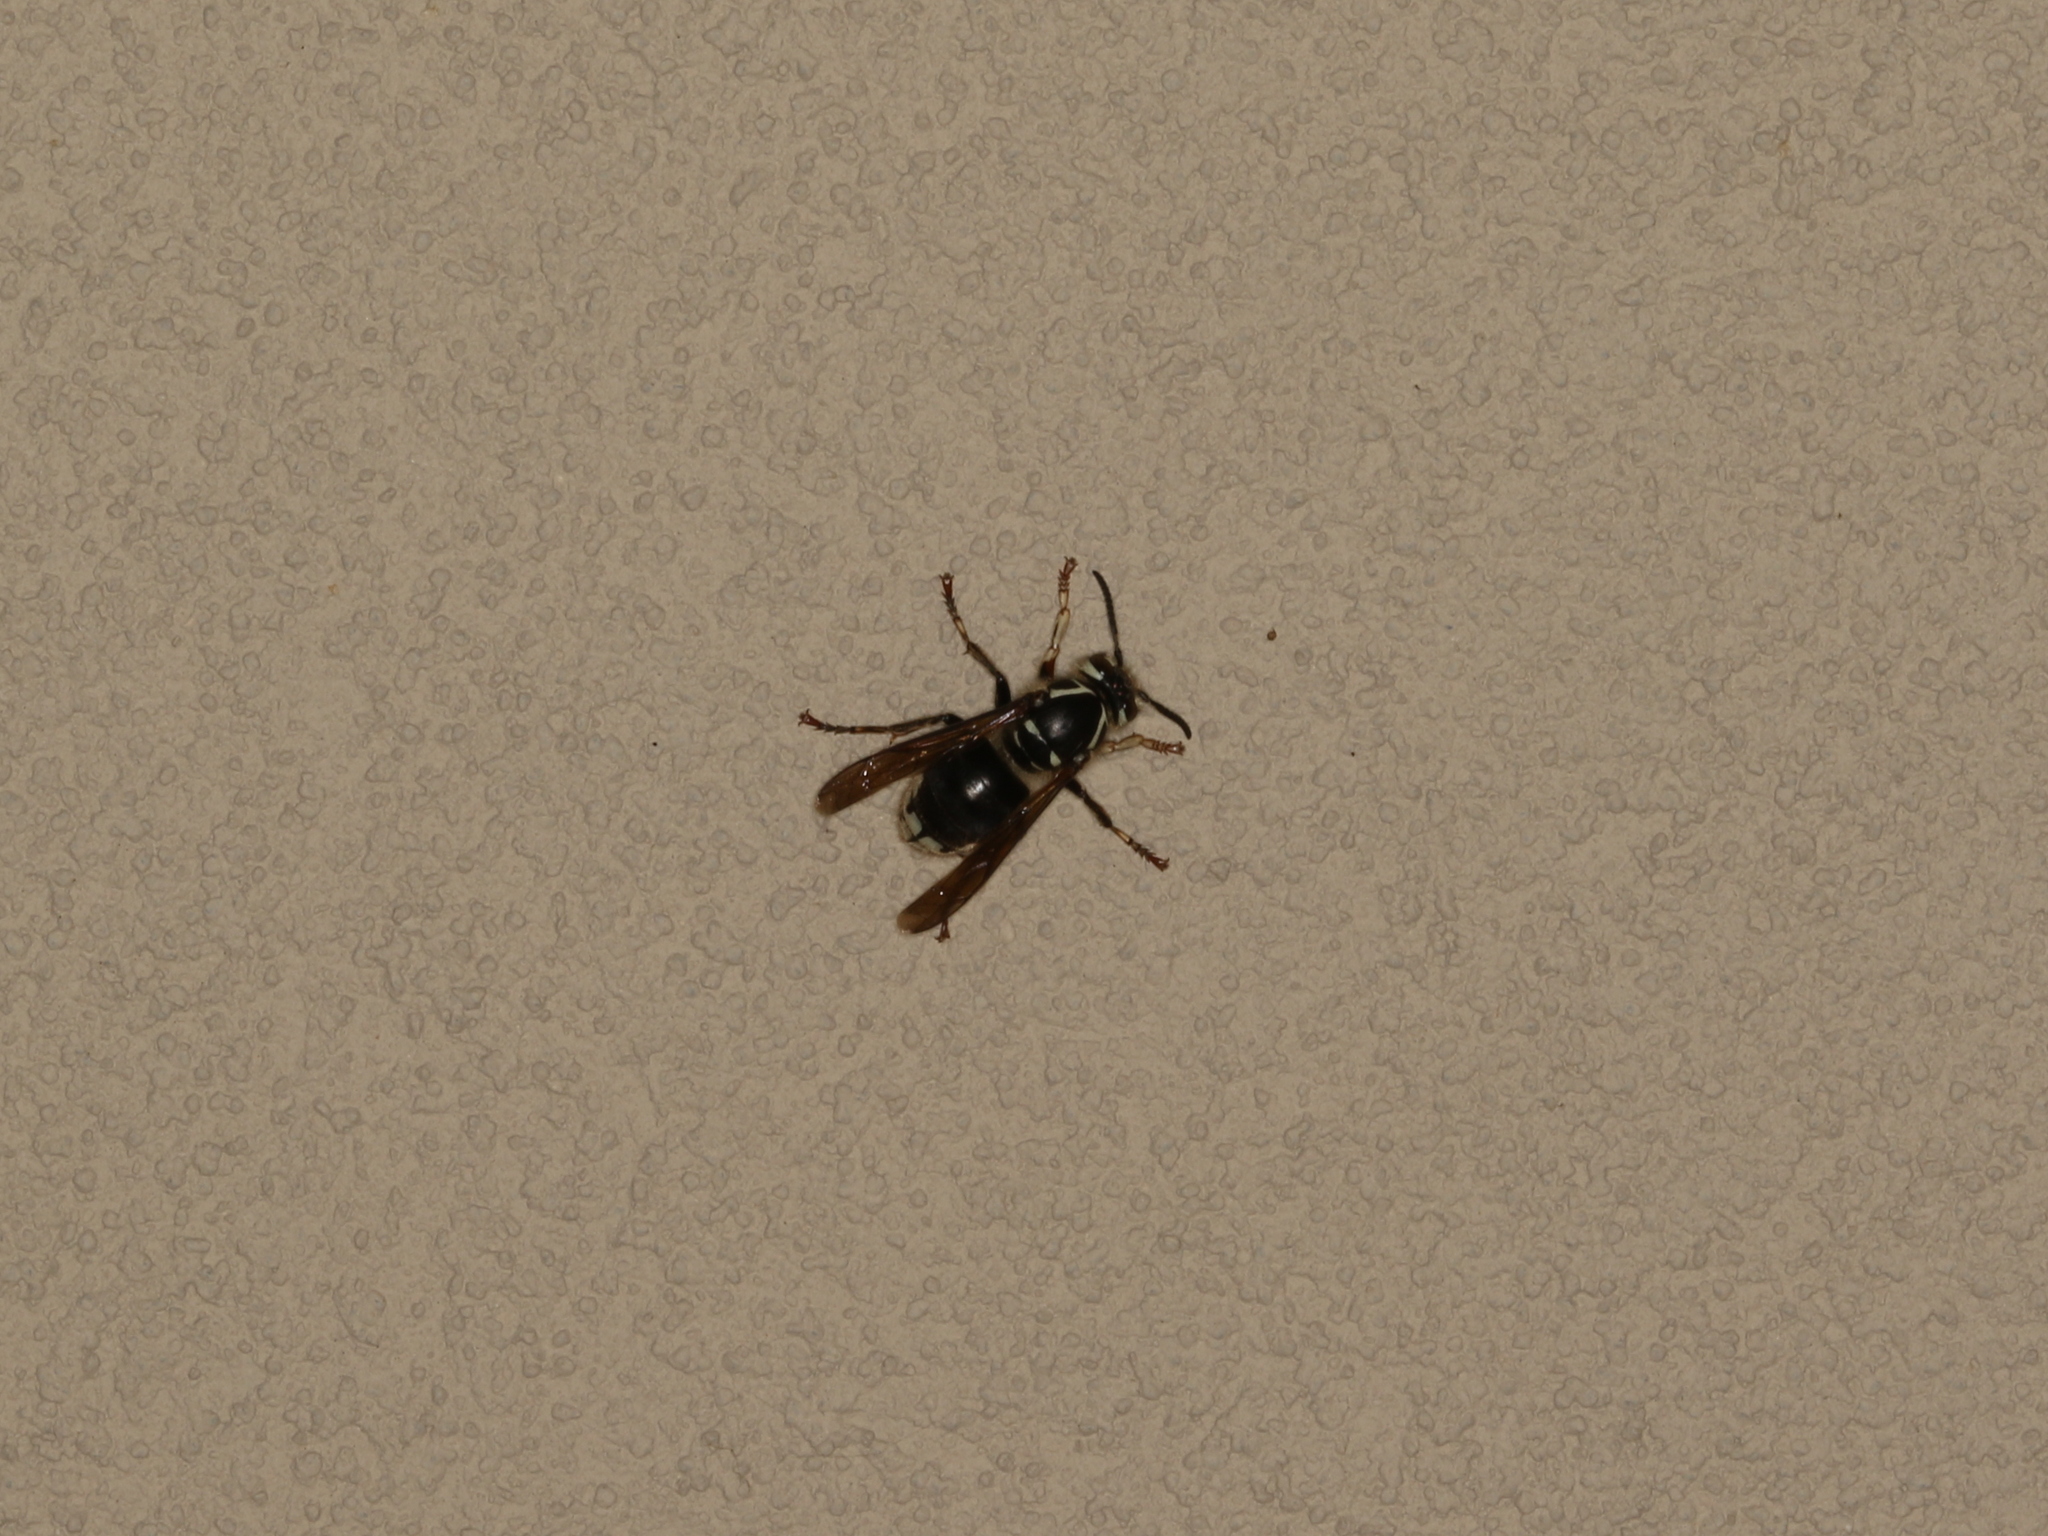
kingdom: Animalia
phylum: Arthropoda
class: Insecta
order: Hymenoptera
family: Vespidae
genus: Dolichovespula
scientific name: Dolichovespula maculata
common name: Bald-faced hornet
